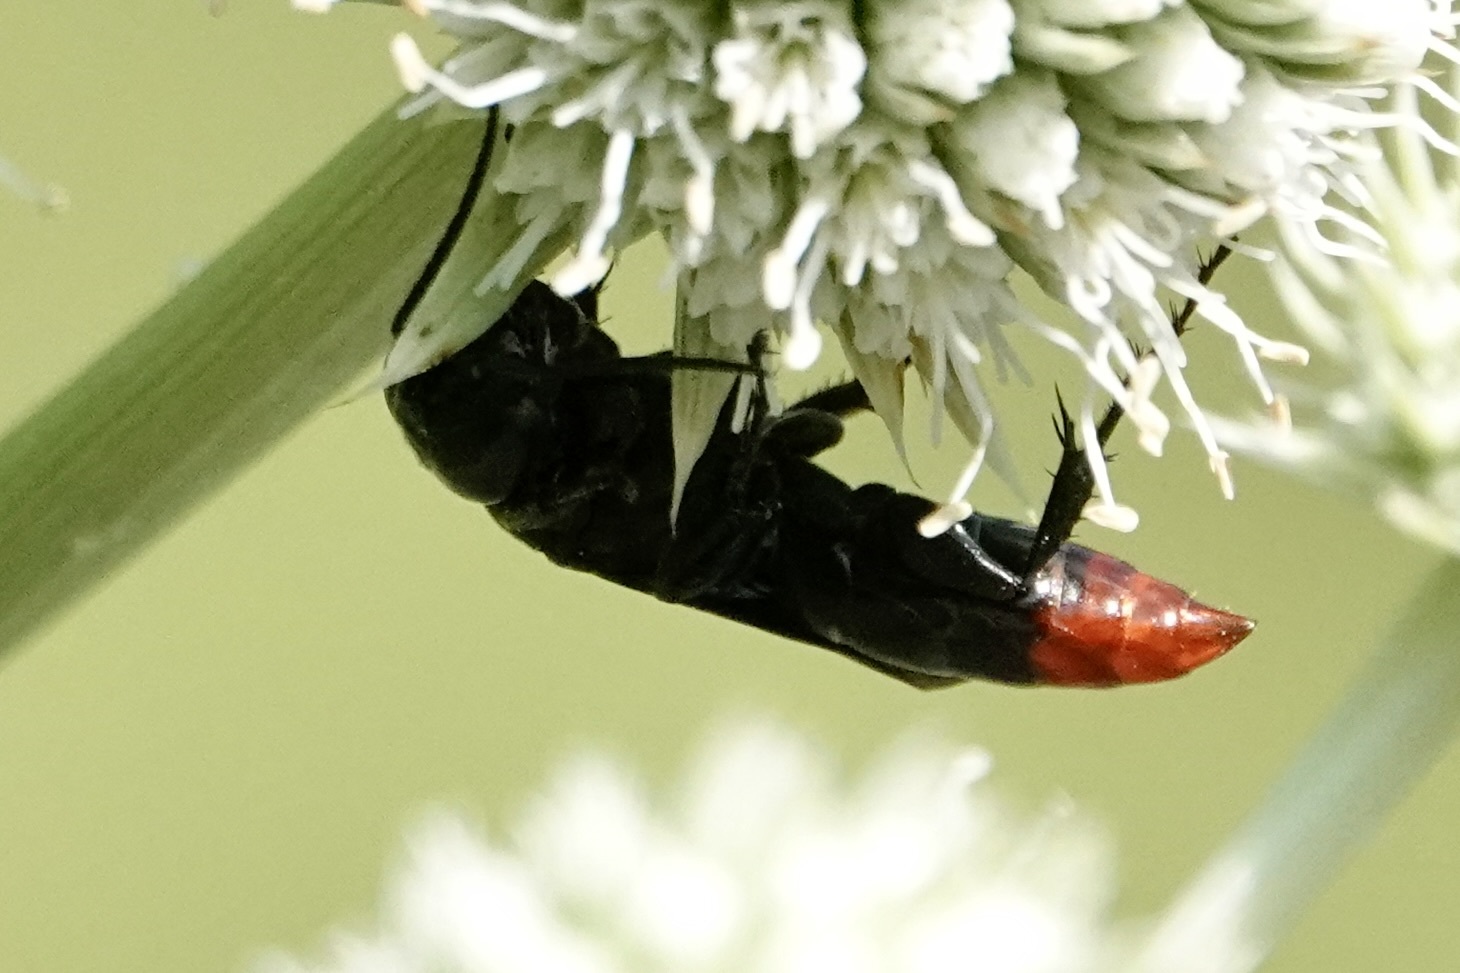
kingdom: Animalia
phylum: Arthropoda
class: Insecta
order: Hymenoptera
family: Crabronidae
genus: Larra
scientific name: Larra analis
